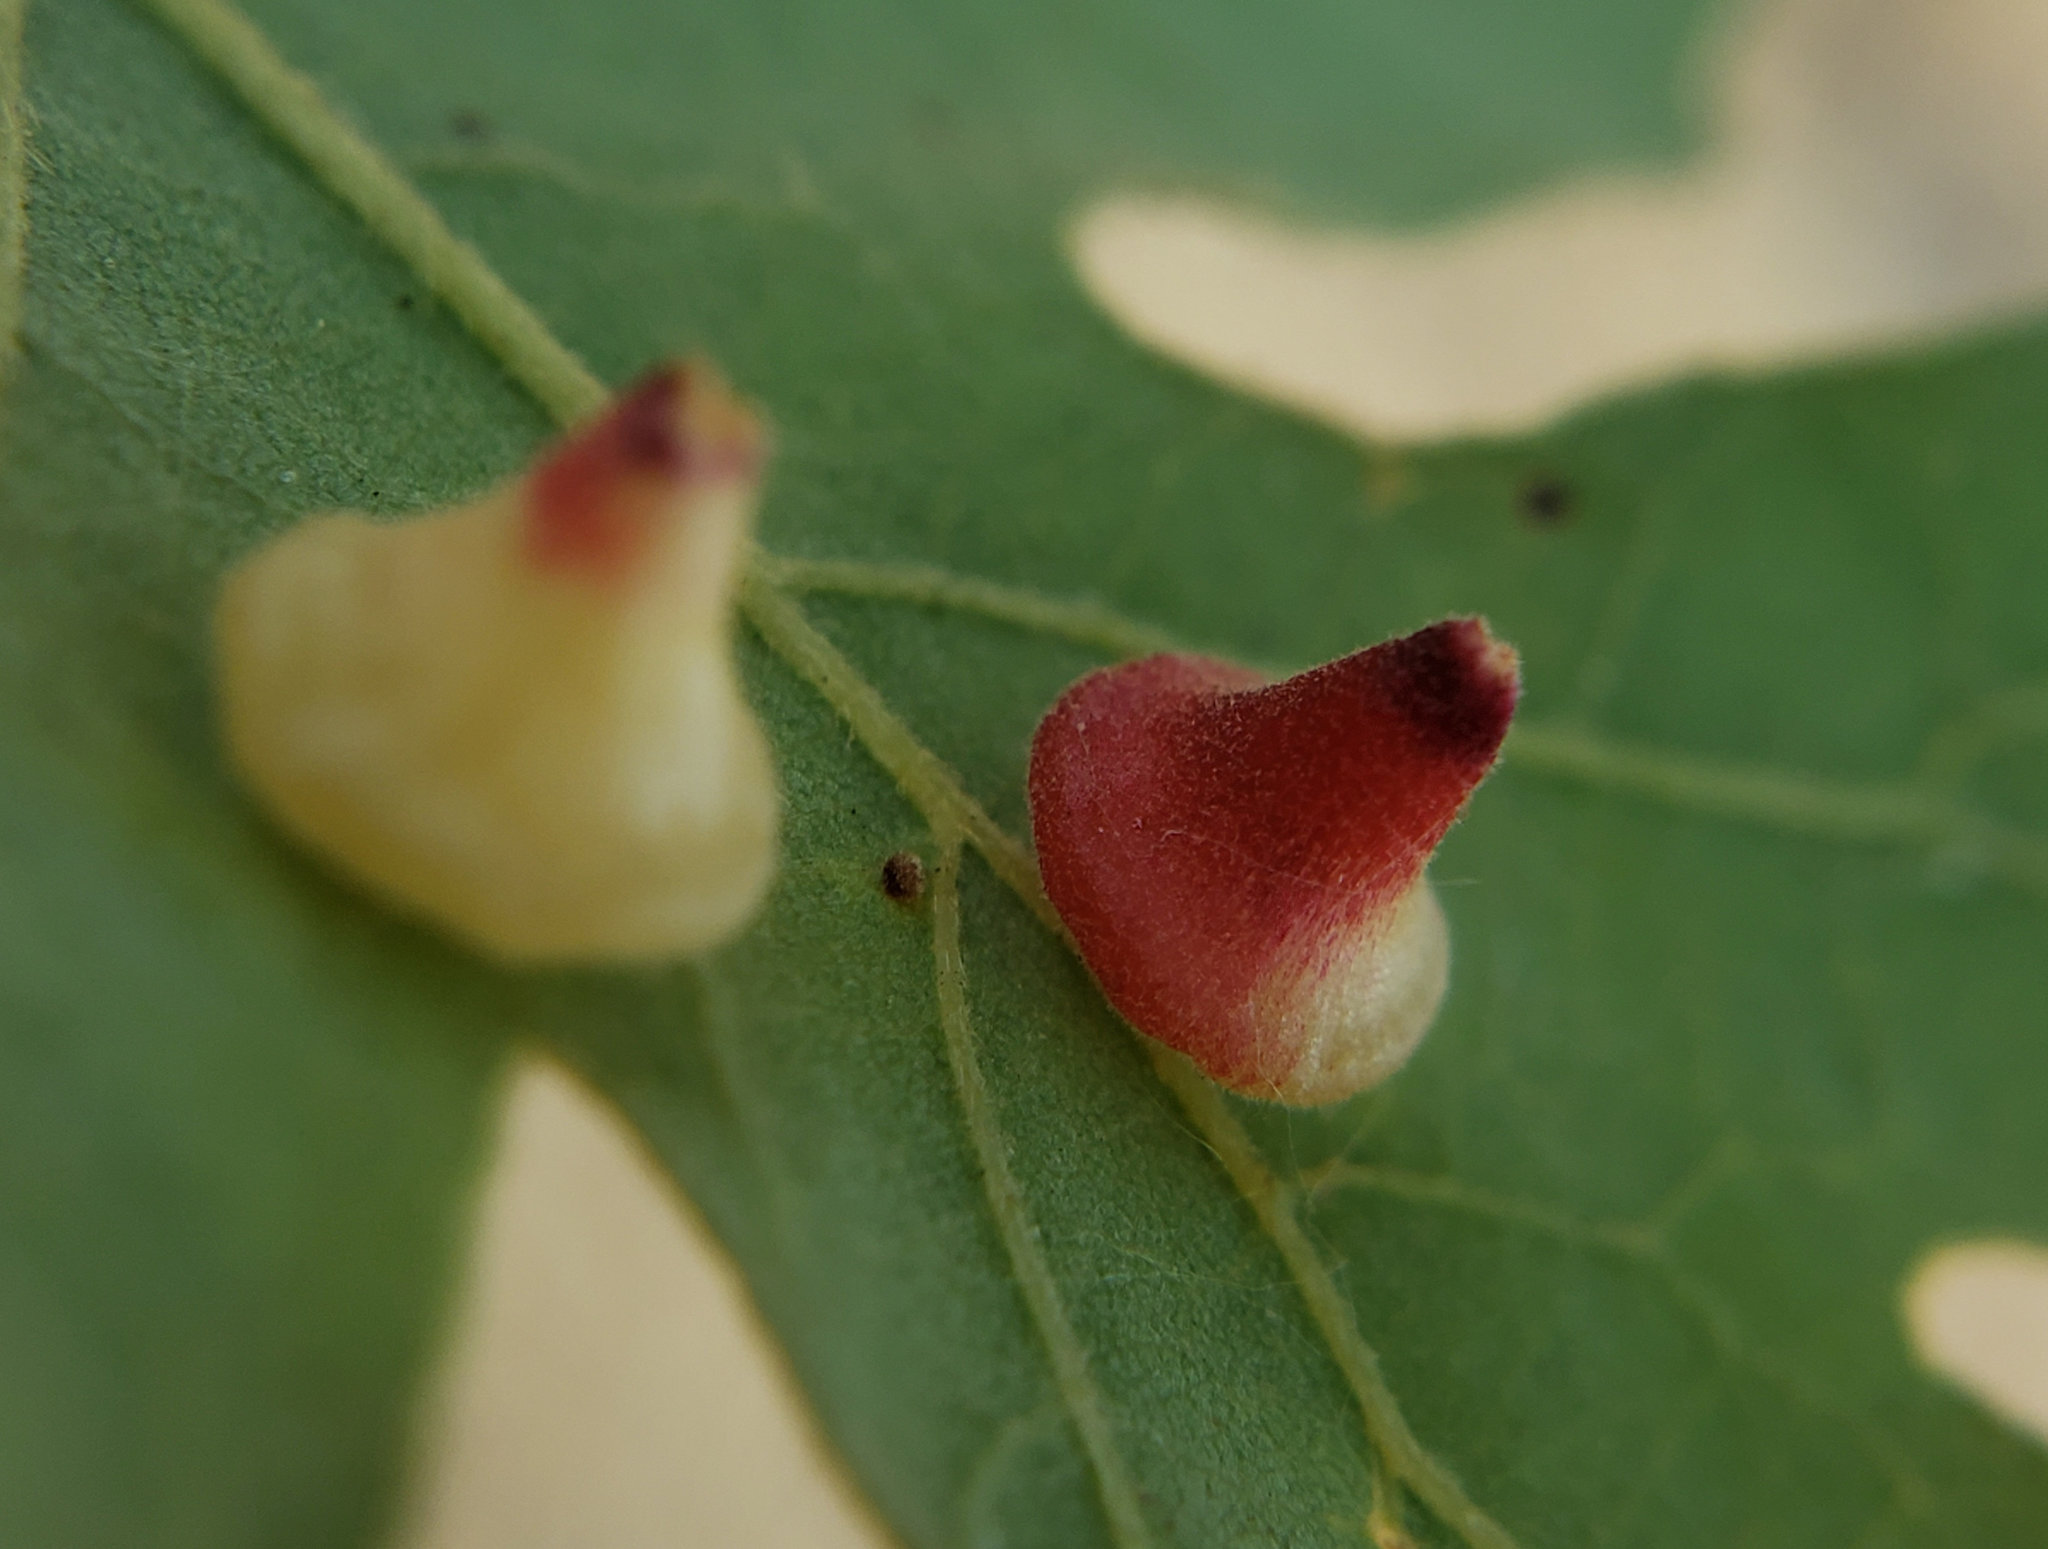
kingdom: Animalia
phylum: Arthropoda
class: Insecta
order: Hymenoptera
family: Cynipidae
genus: Andricus
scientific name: Andricus
